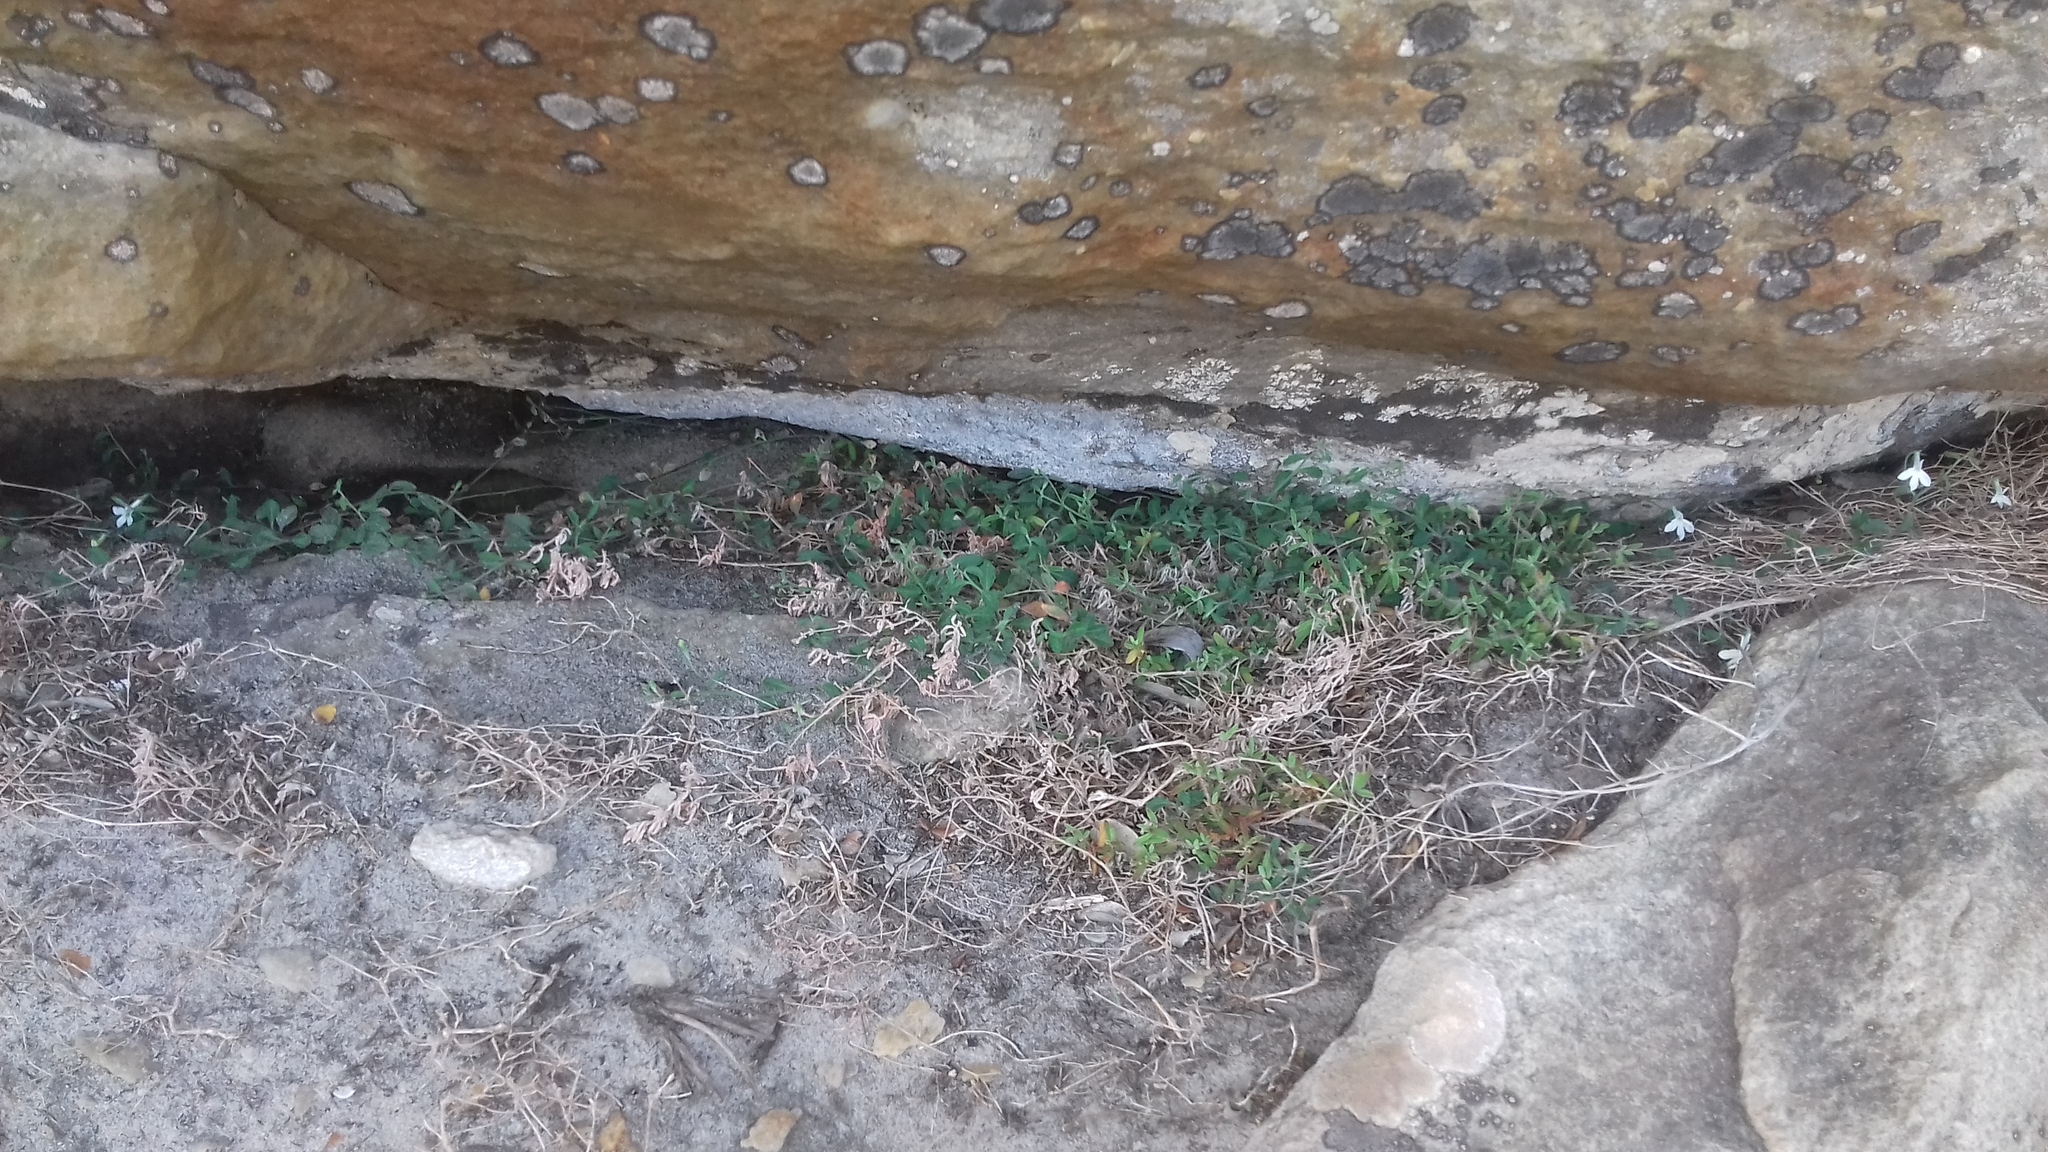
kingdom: Plantae
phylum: Tracheophyta
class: Magnoliopsida
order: Asterales
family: Campanulaceae
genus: Lobelia
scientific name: Lobelia boivinii
